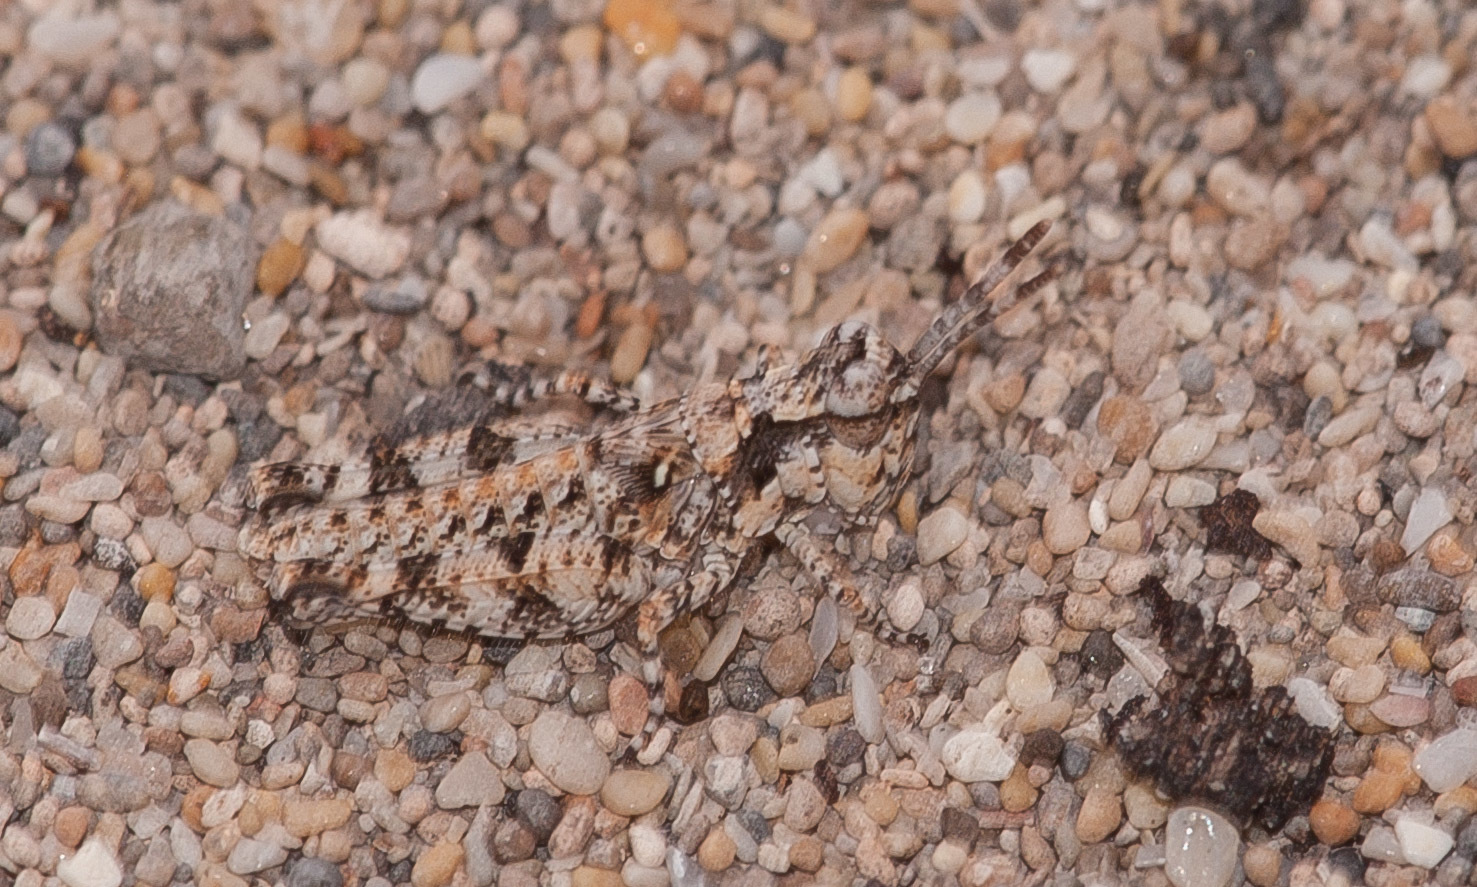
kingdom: Animalia
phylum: Arthropoda
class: Insecta
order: Orthoptera
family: Acrididae
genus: Pycnostictus
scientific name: Pycnostictus seriatus
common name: Common bandwing
